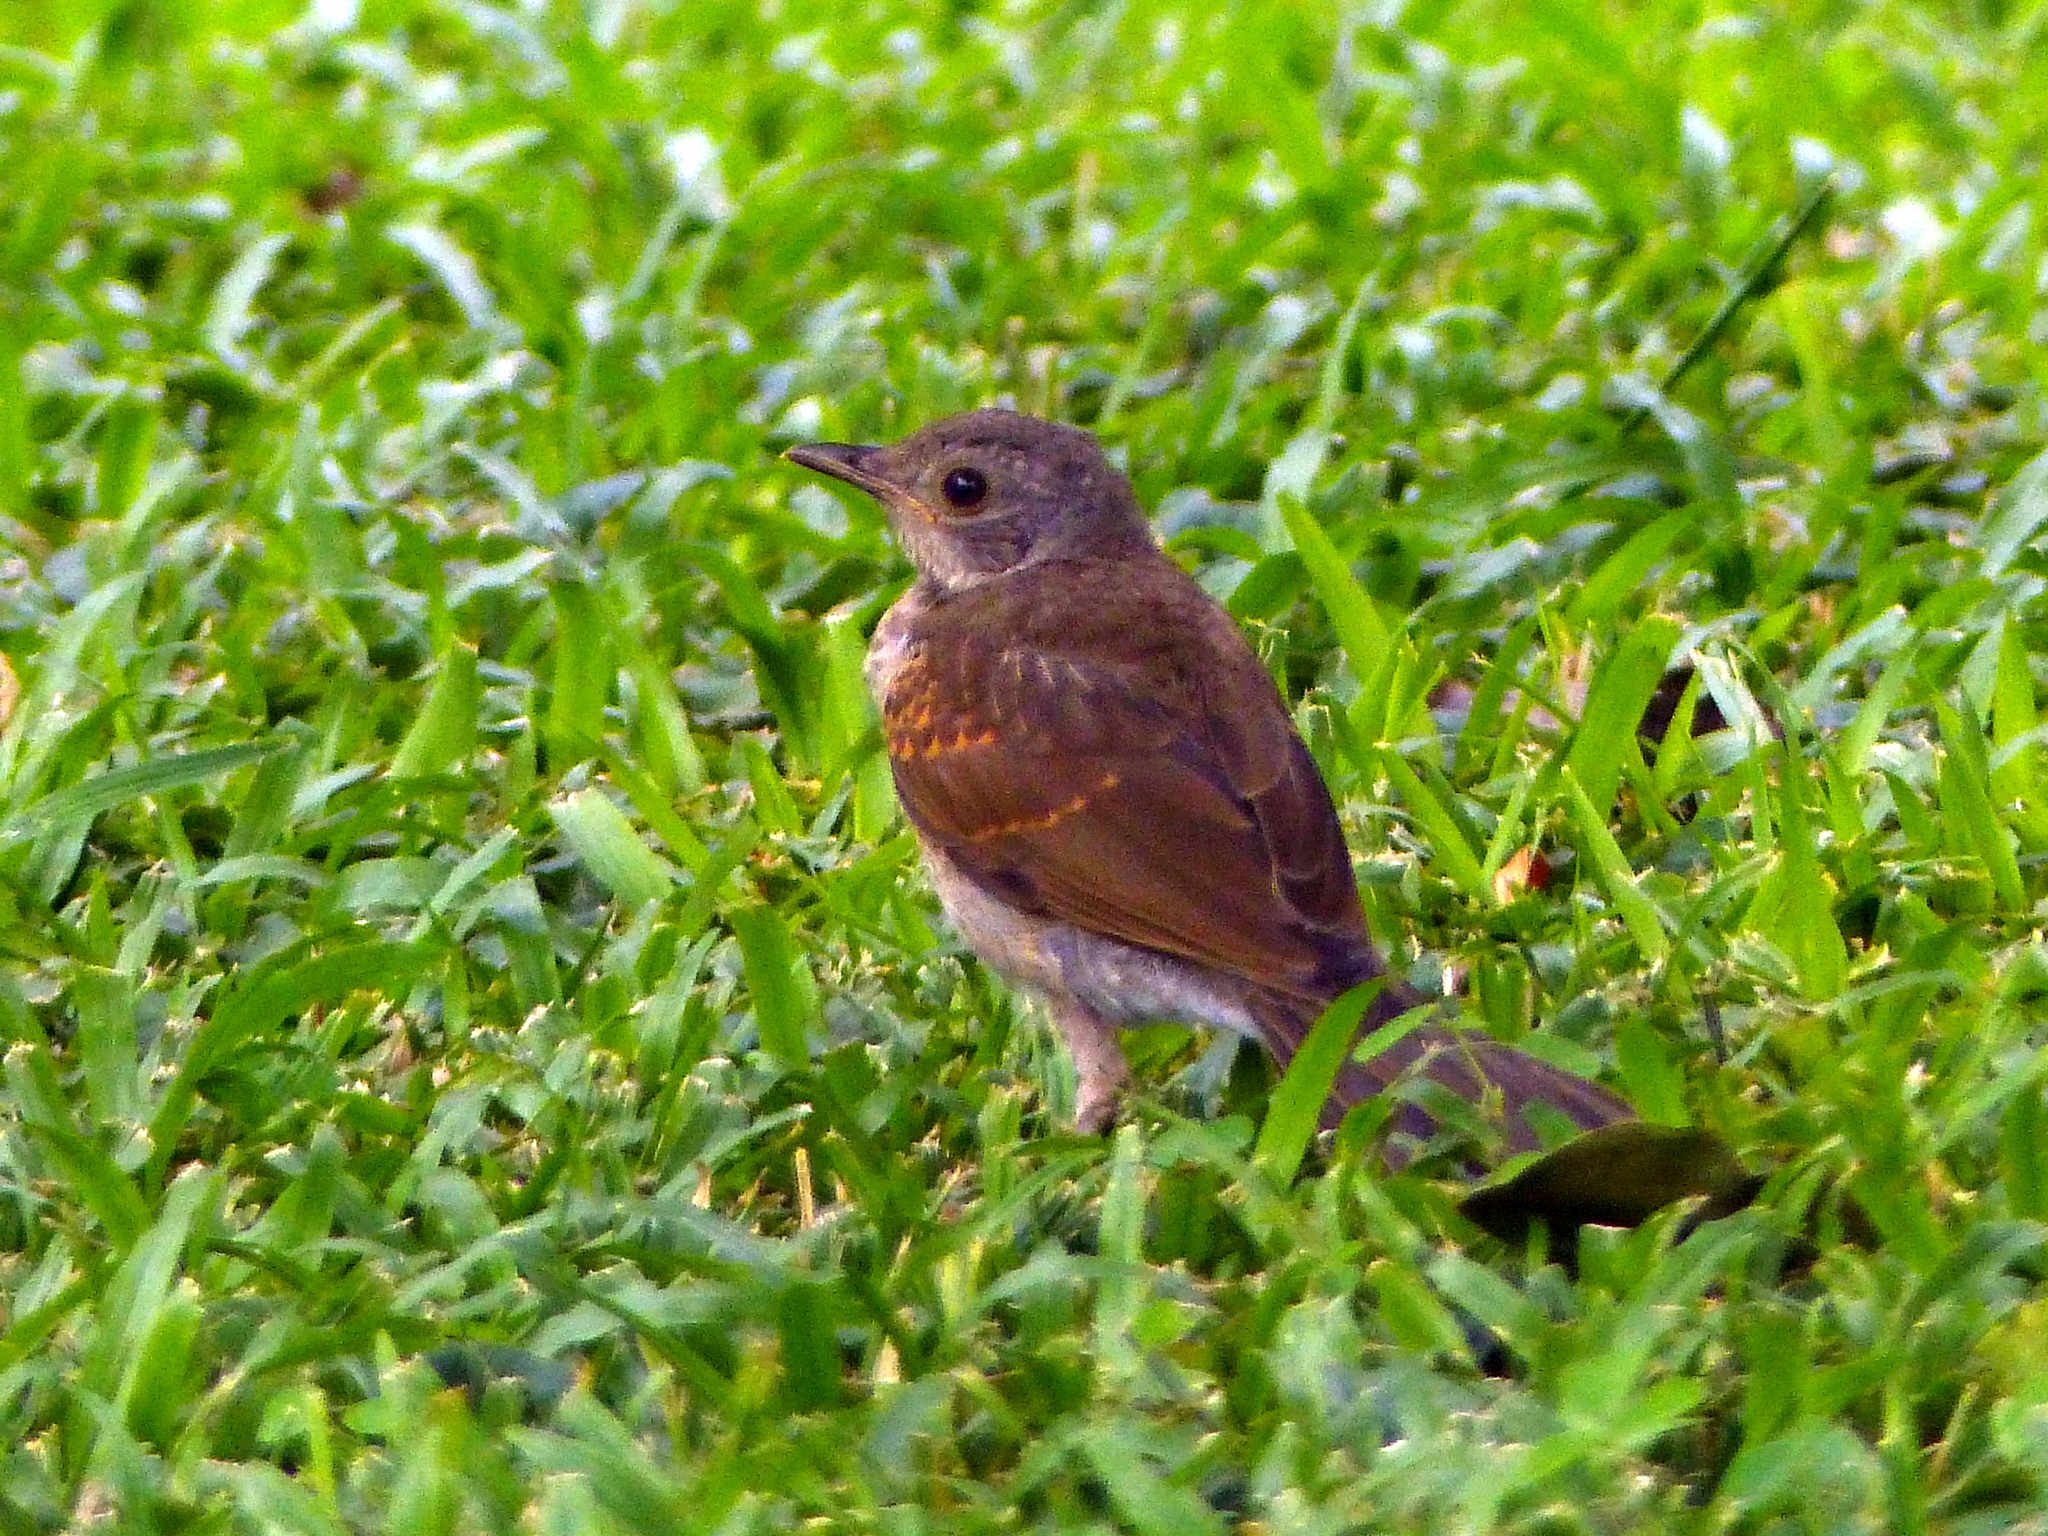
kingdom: Animalia
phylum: Chordata
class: Aves
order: Passeriformes
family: Turdidae
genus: Turdus
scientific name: Turdus leucomelas
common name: Pale-breasted thrush
